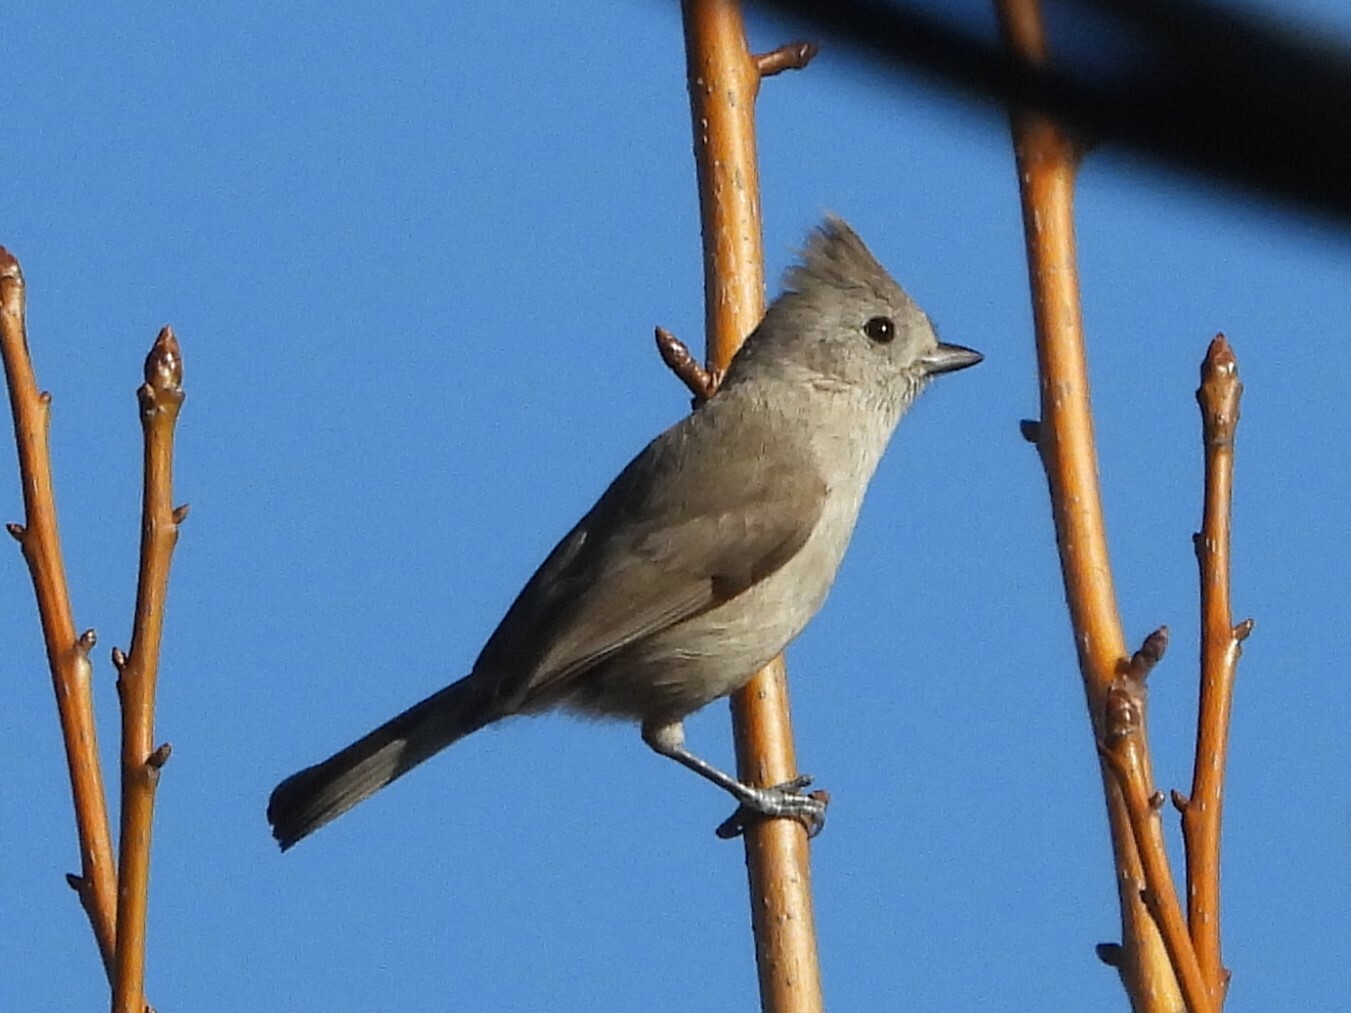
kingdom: Animalia
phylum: Chordata
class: Aves
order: Passeriformes
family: Paridae
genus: Baeolophus
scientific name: Baeolophus inornatus
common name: Oak titmouse
